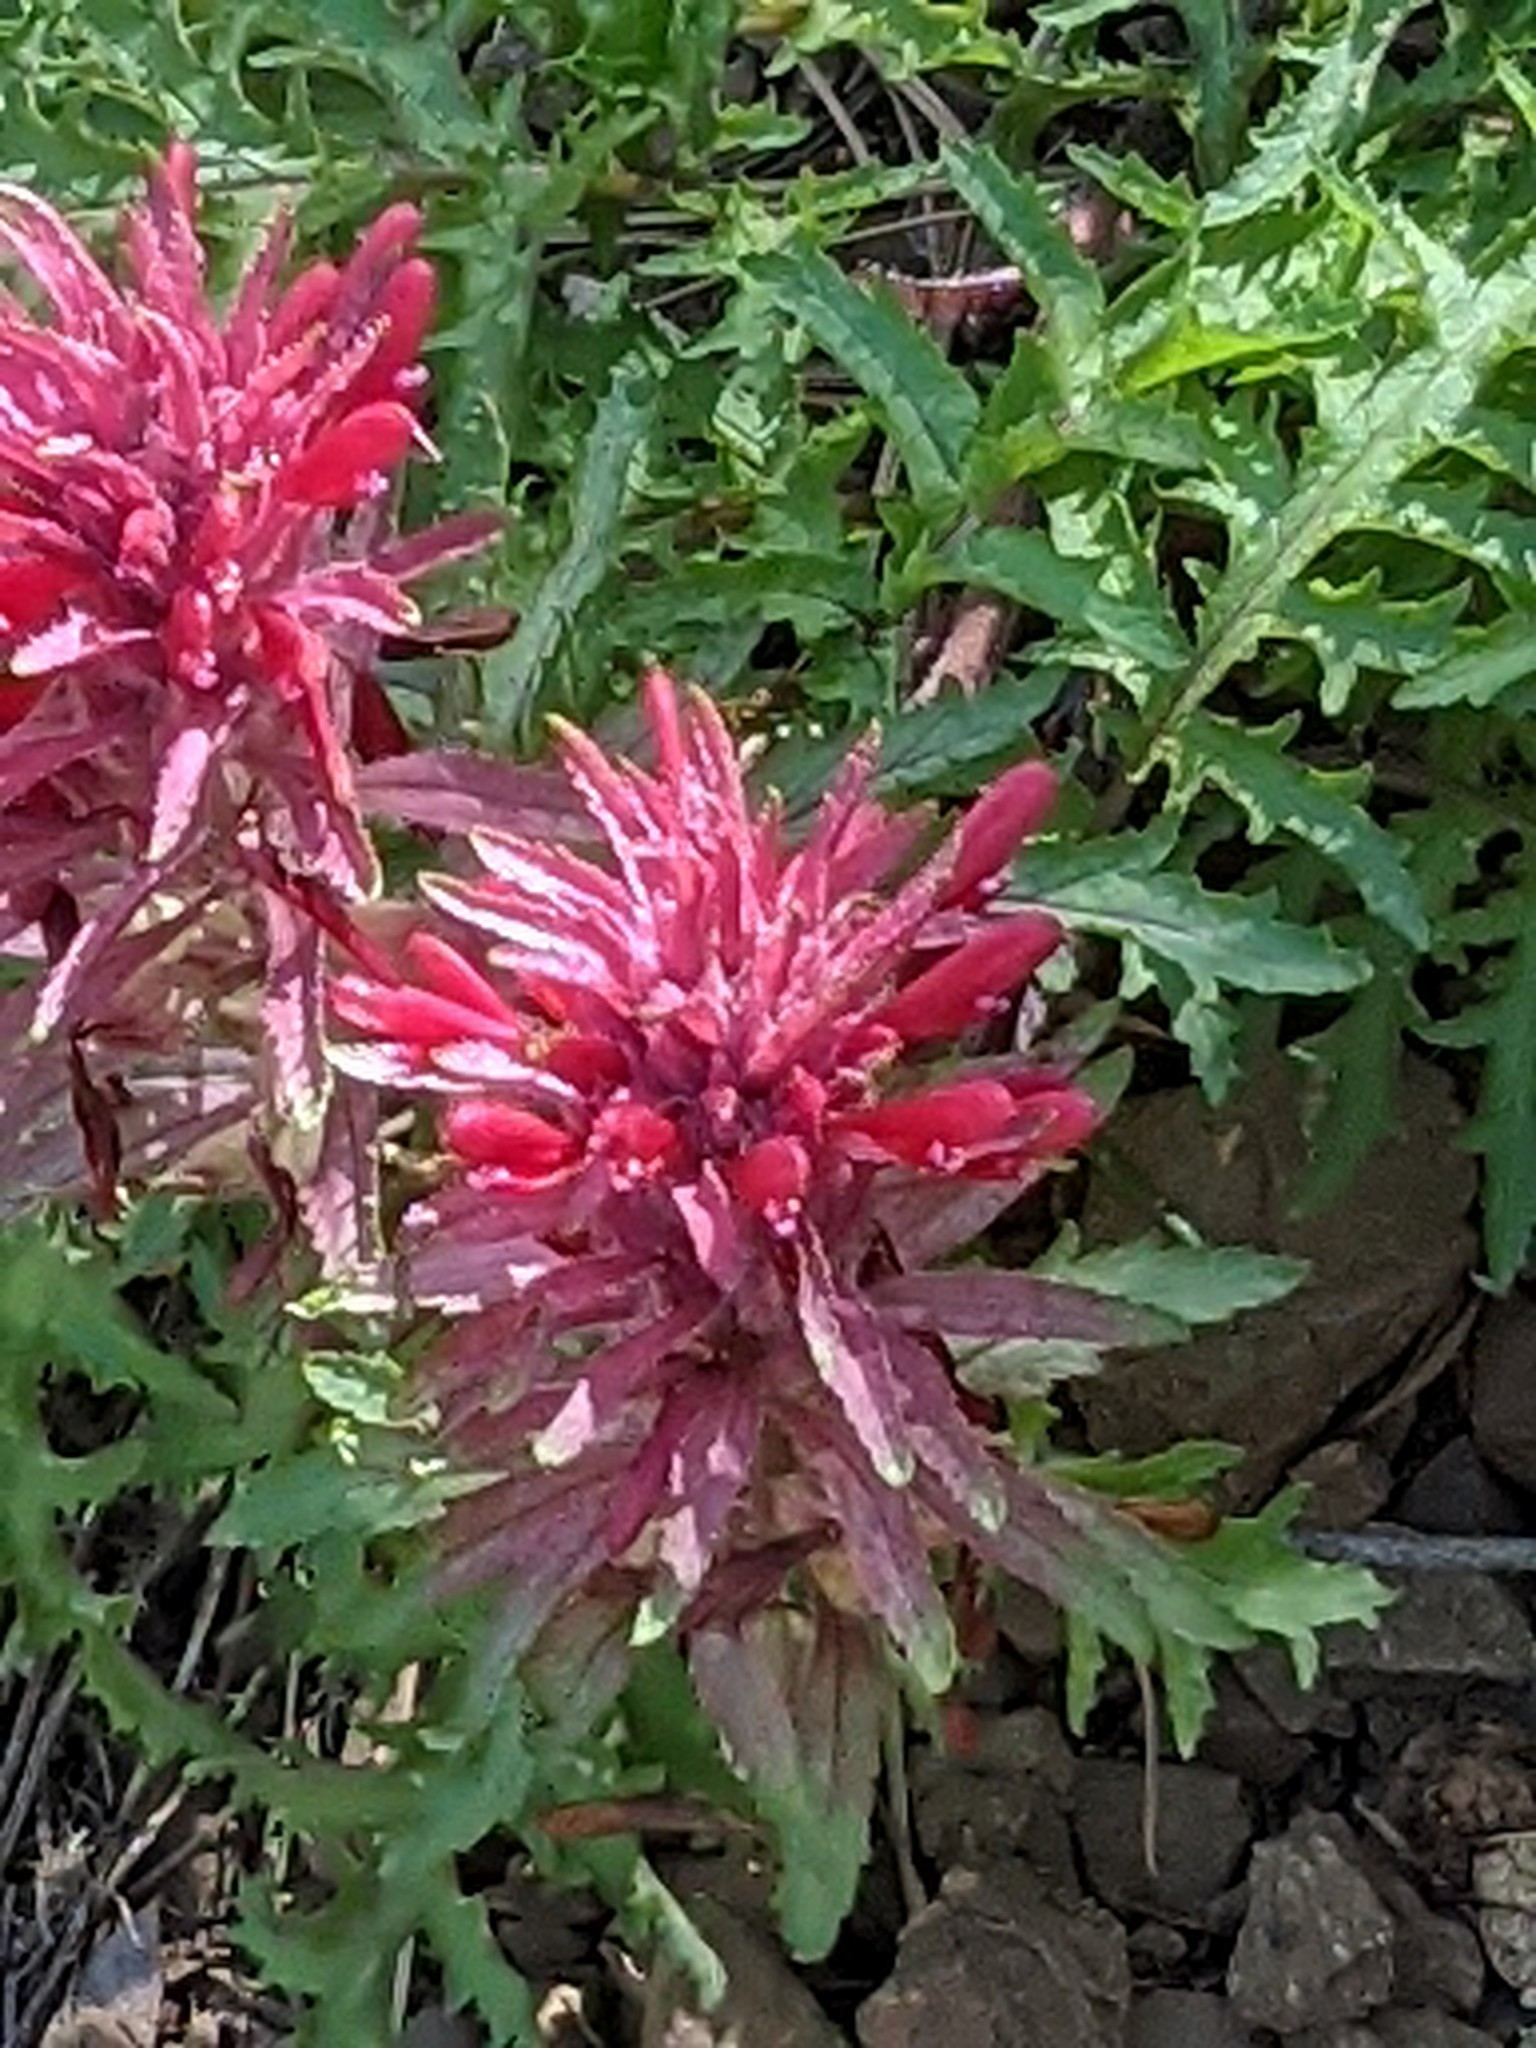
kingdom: Plantae
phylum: Tracheophyta
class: Magnoliopsida
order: Lamiales
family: Orobanchaceae
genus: Pedicularis
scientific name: Pedicularis densiflora
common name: Indian warrior
